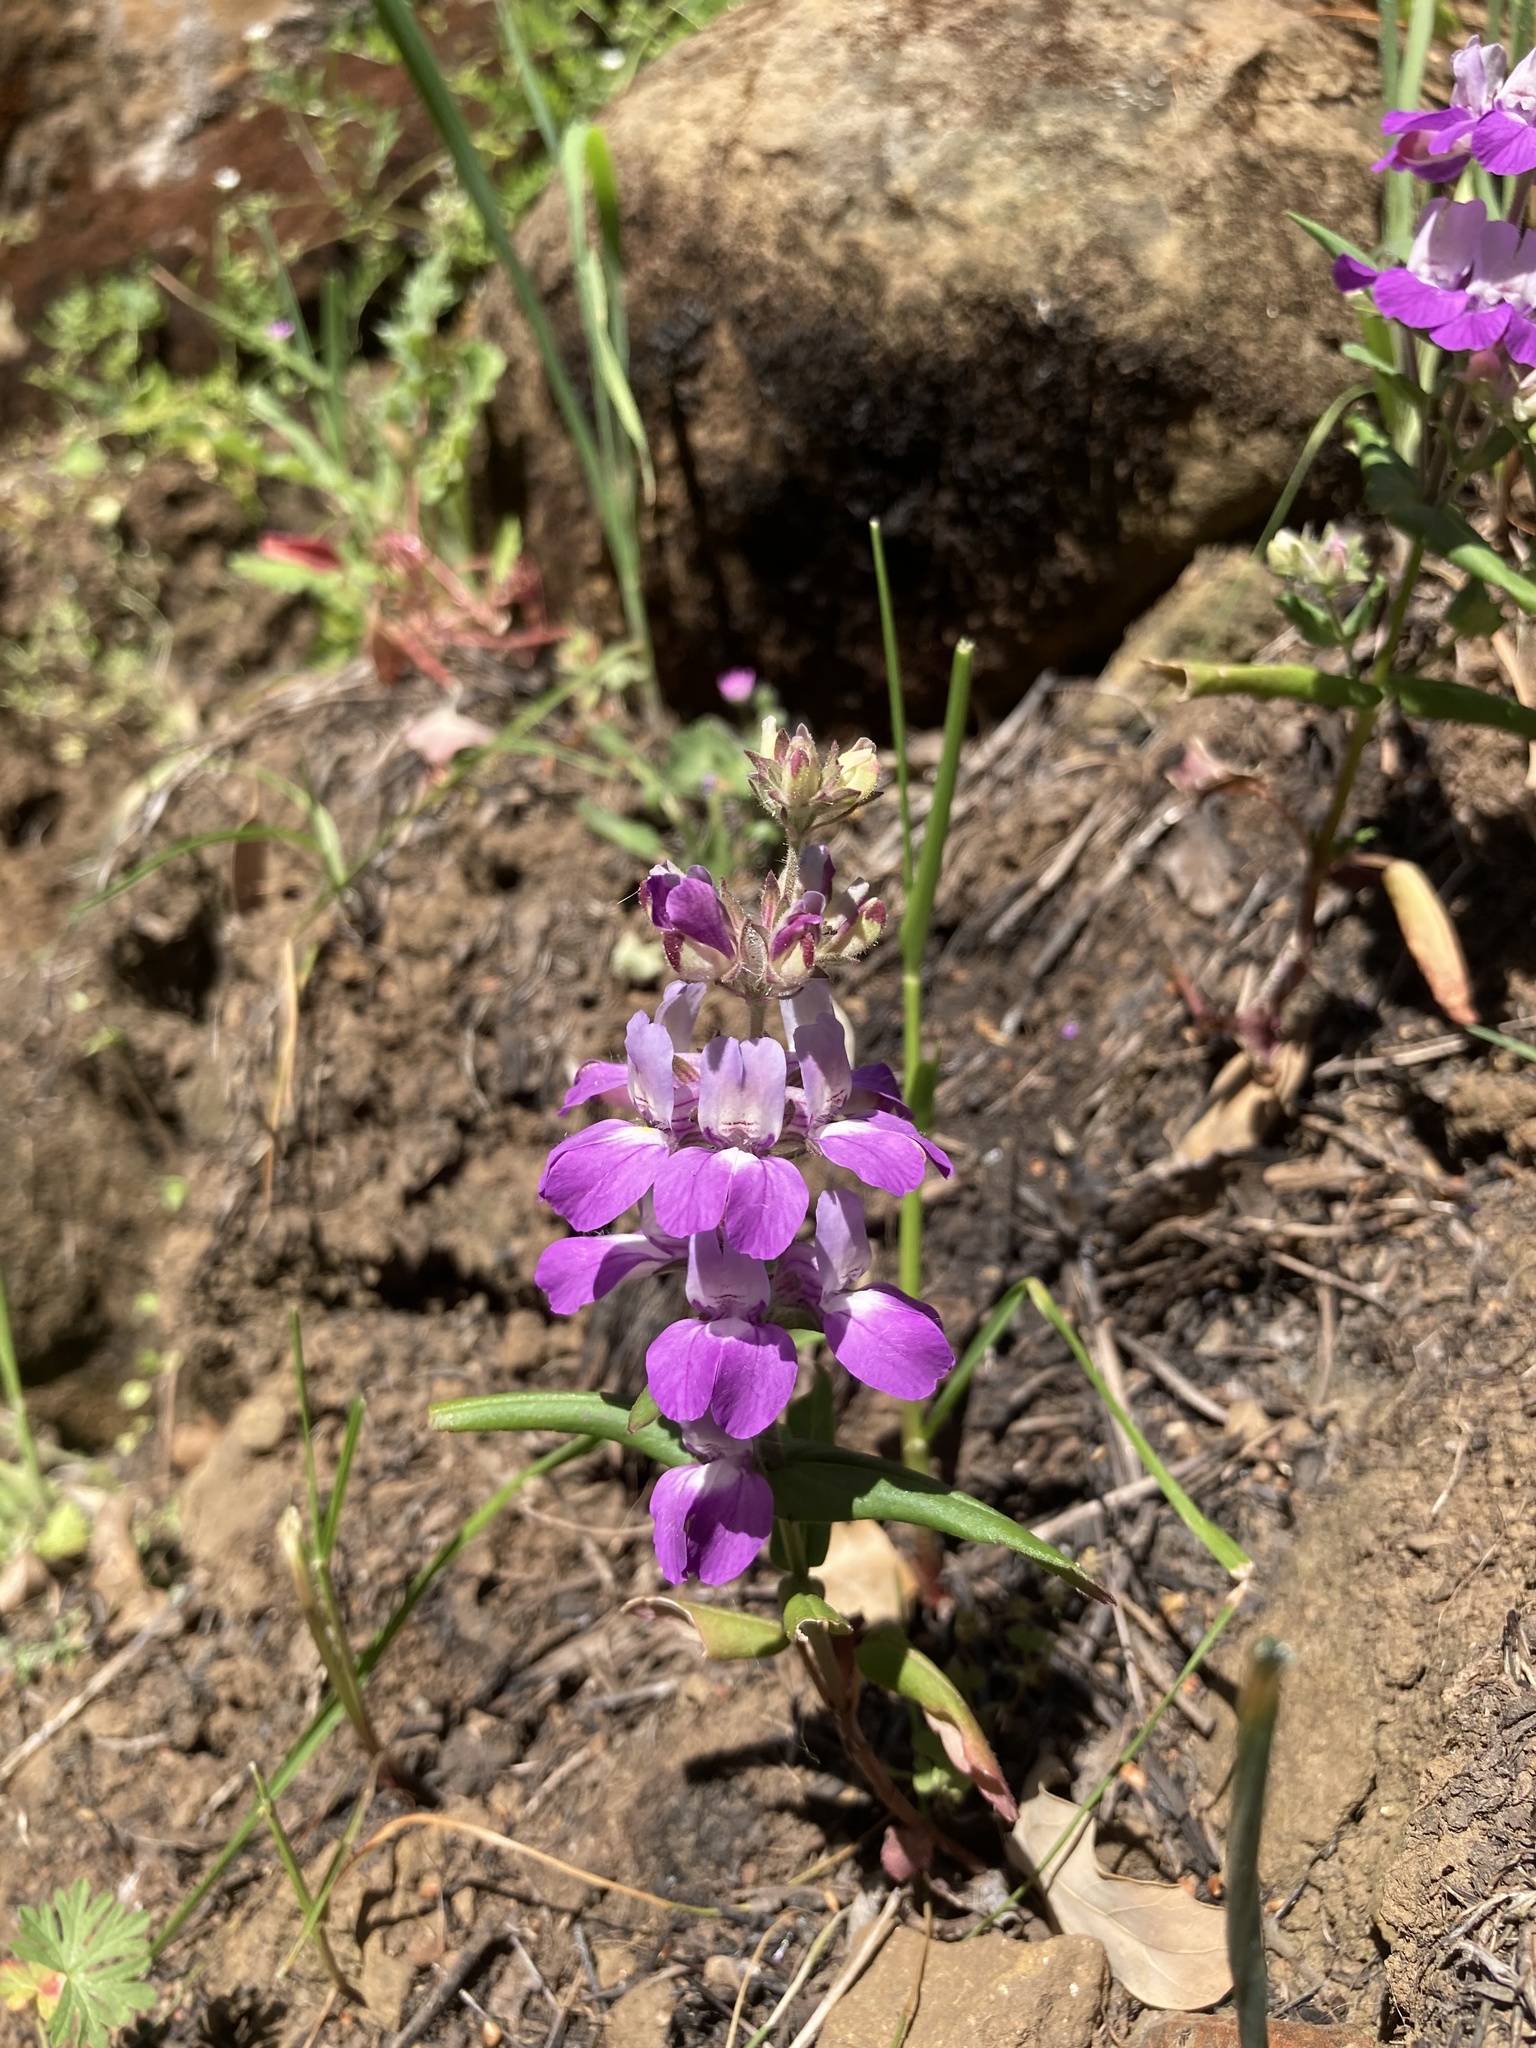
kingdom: Plantae
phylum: Tracheophyta
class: Magnoliopsida
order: Lamiales
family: Plantaginaceae
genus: Collinsia
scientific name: Collinsia heterophylla
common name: Chinese-houses
